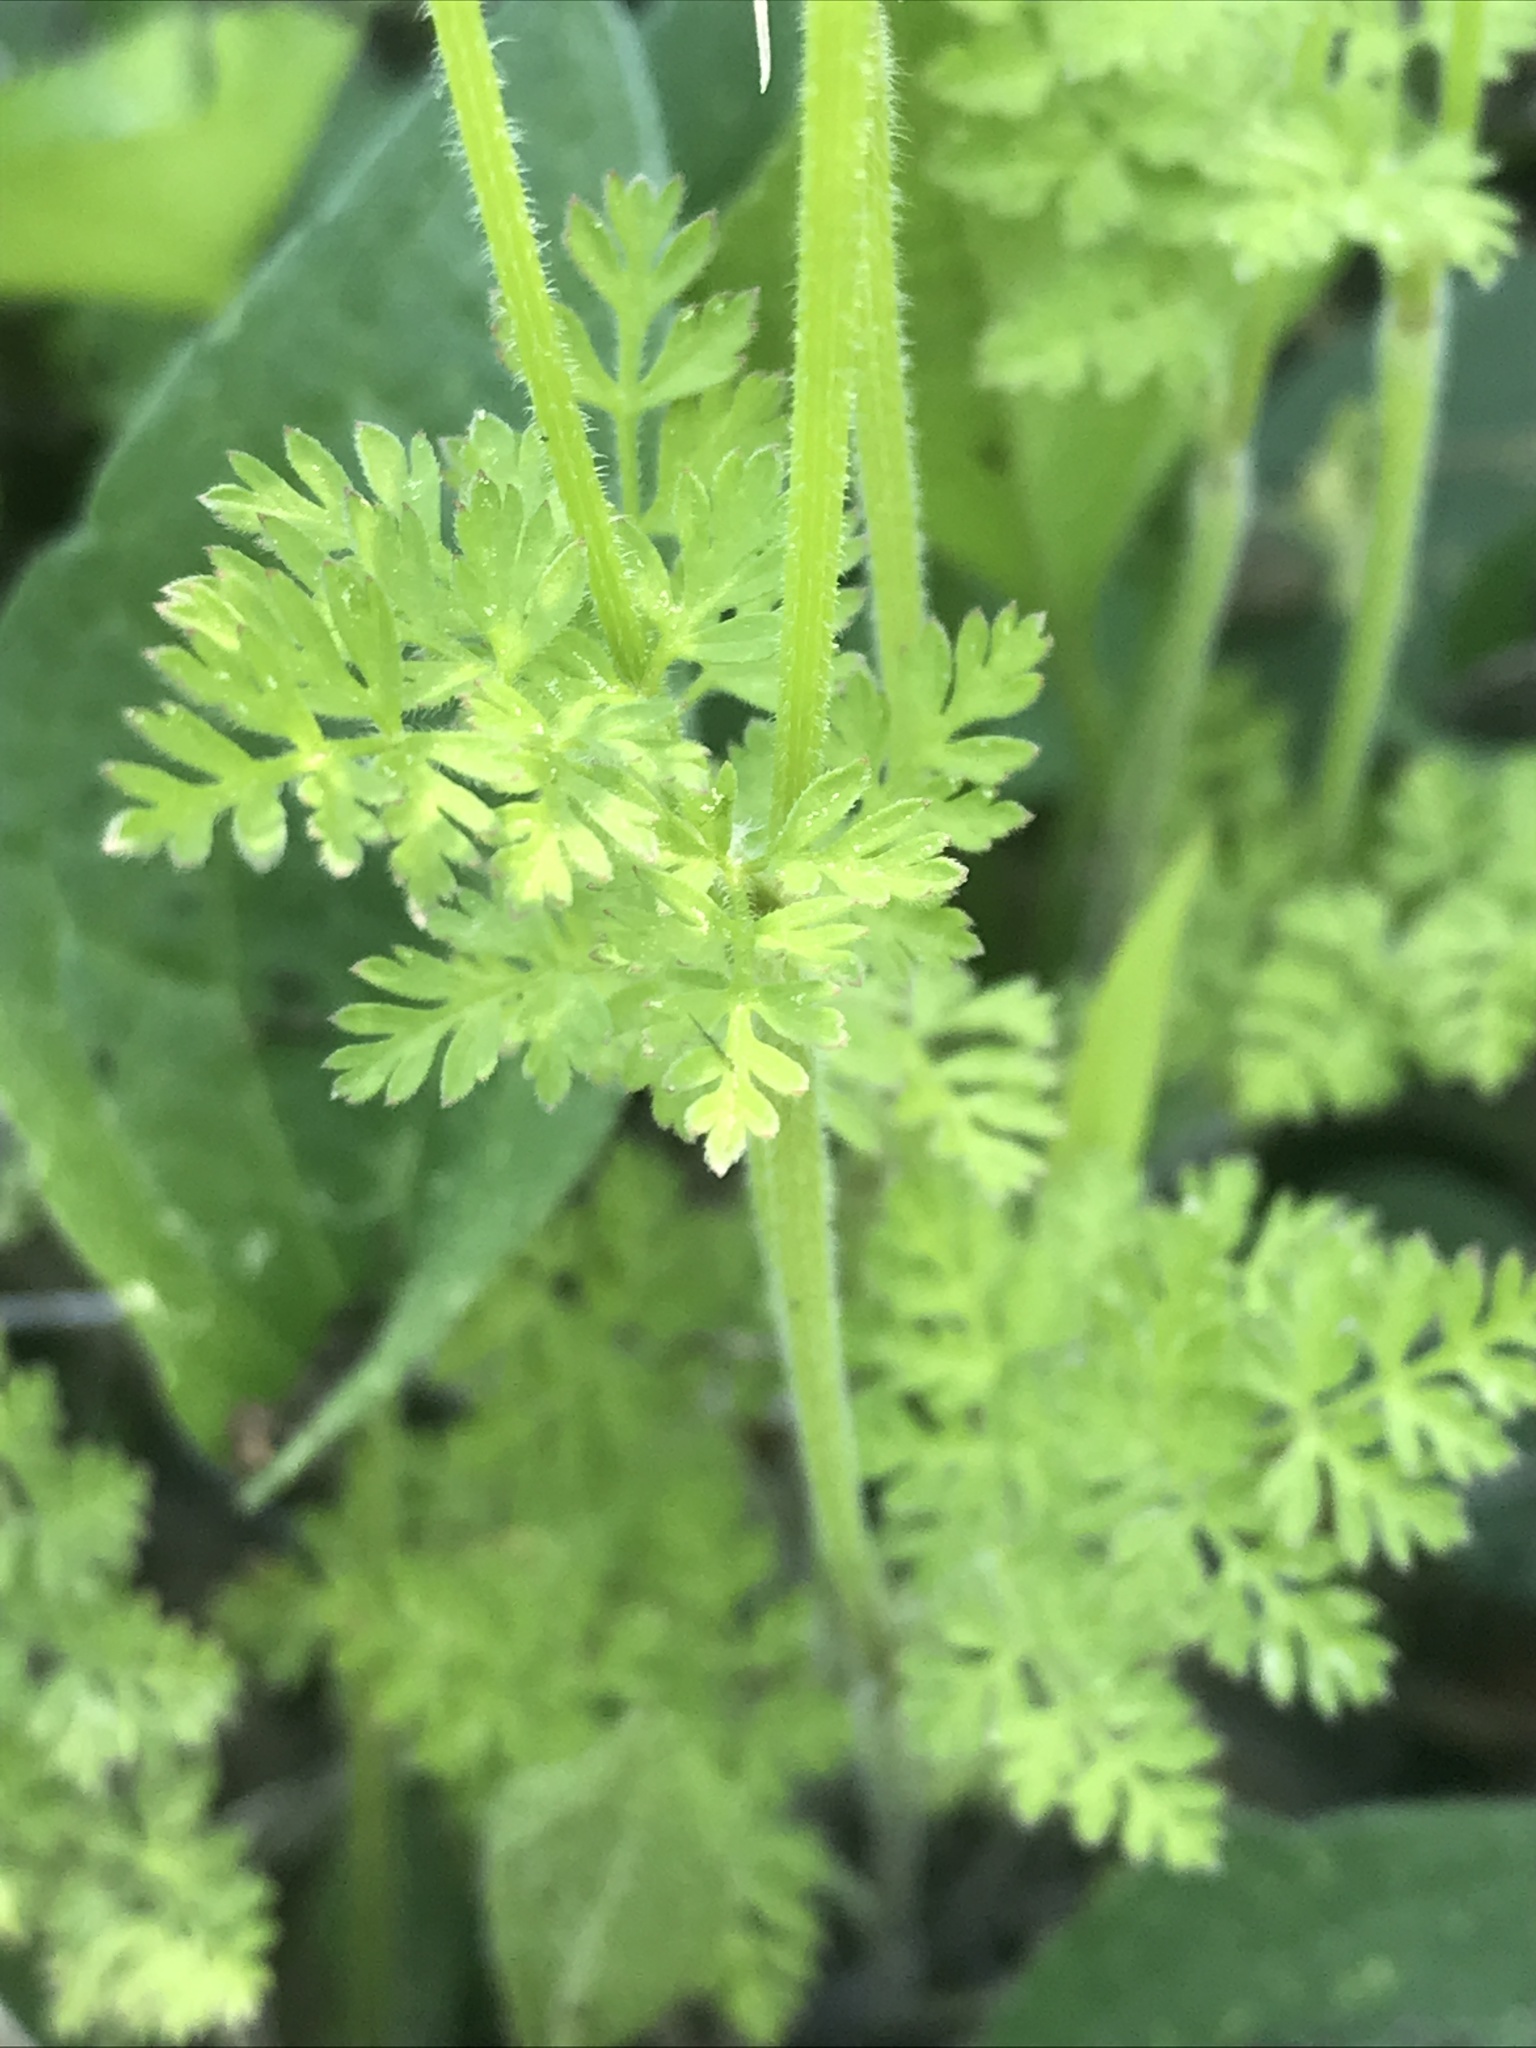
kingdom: Plantae
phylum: Tracheophyta
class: Magnoliopsida
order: Apiales
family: Apiaceae
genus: Chaerophyllum
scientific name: Chaerophyllum tainturieri
